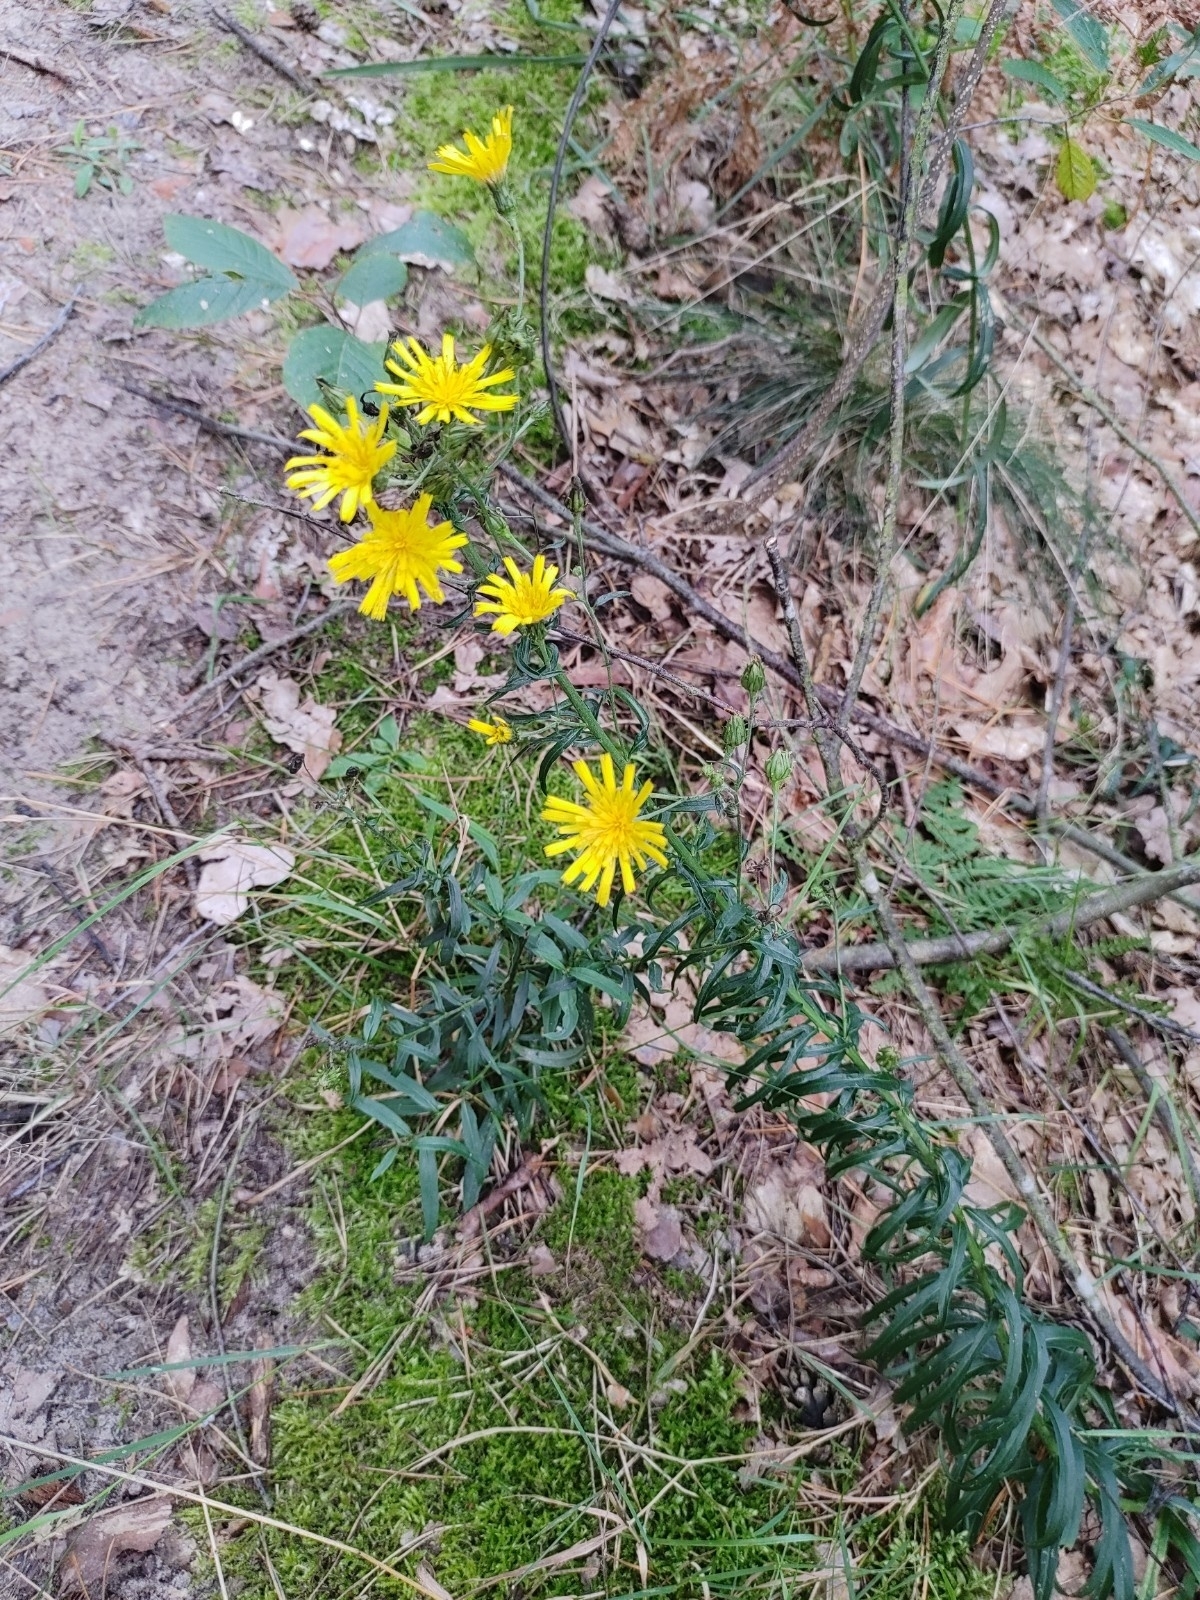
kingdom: Plantae
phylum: Tracheophyta
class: Magnoliopsida
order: Asterales
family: Asteraceae
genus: Hieracium
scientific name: Hieracium umbellatum
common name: Northern hawkweed
